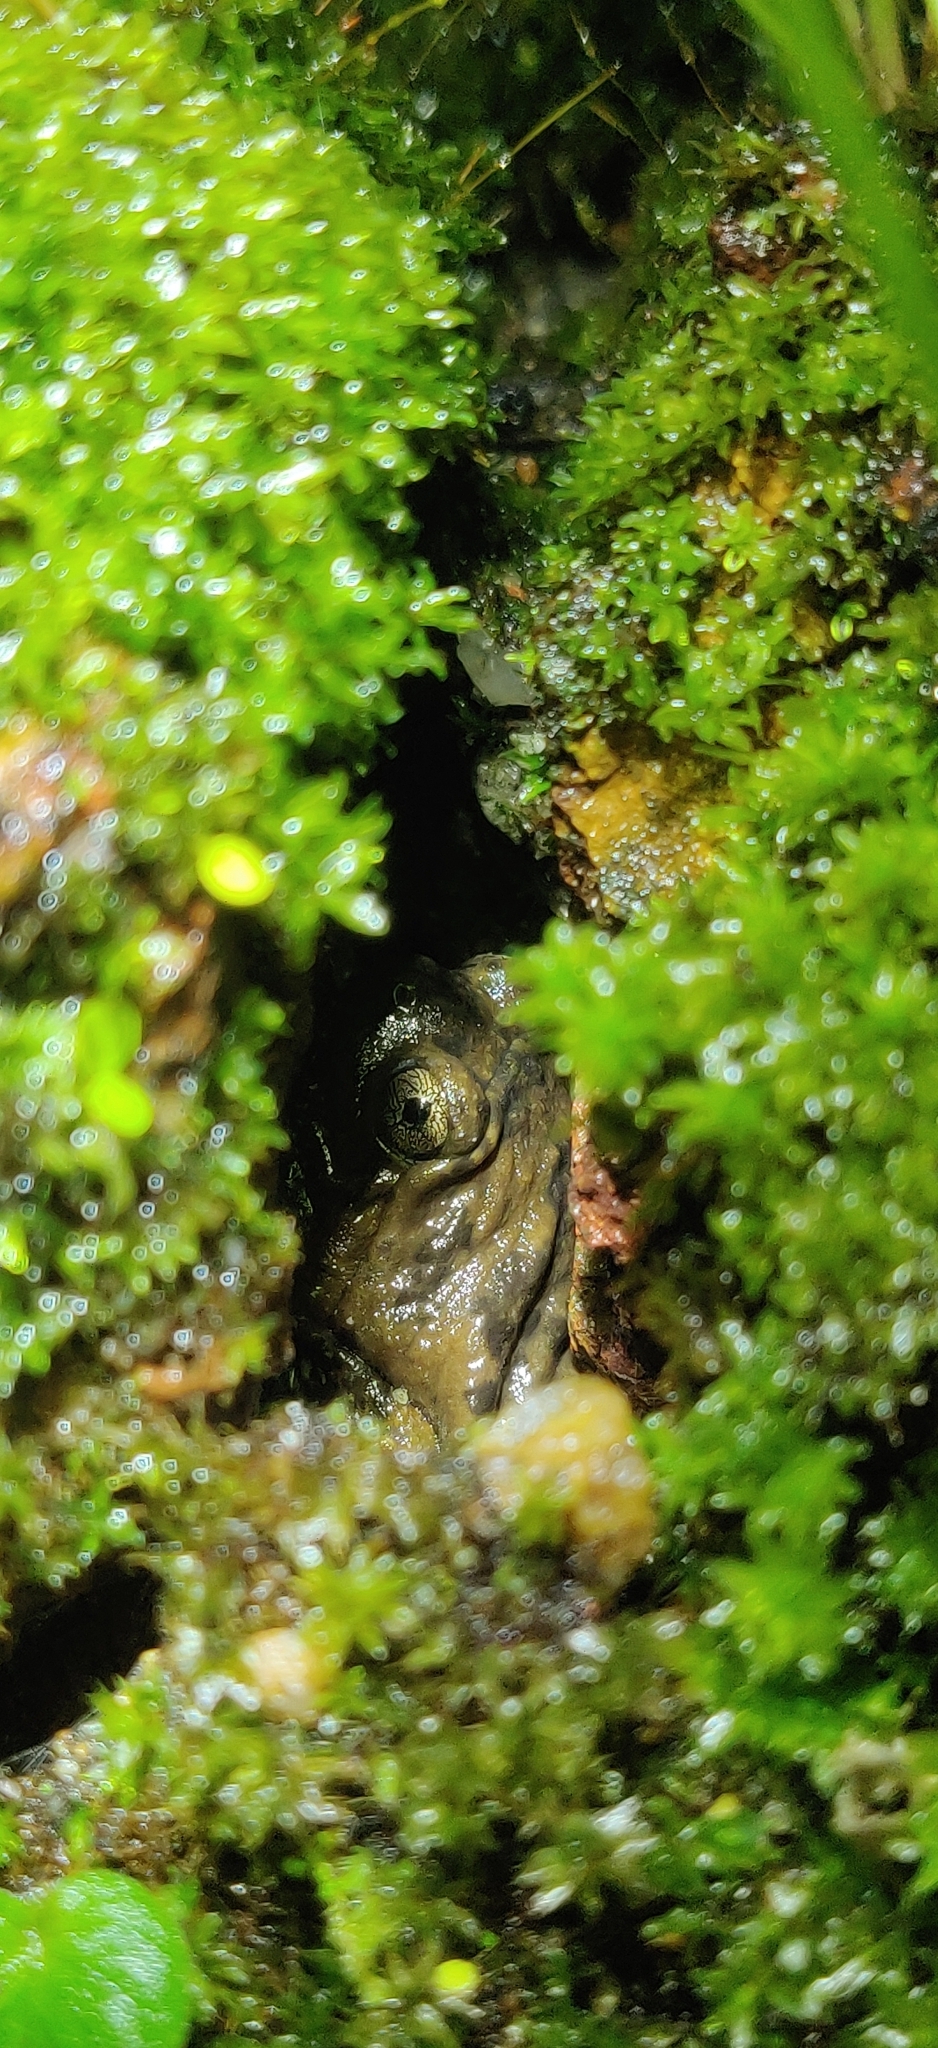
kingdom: Animalia
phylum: Chordata
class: Amphibia
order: Anura
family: Microhylidae
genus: Uperodon
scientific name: Uperodon mormoratus
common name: Indian dot frog
